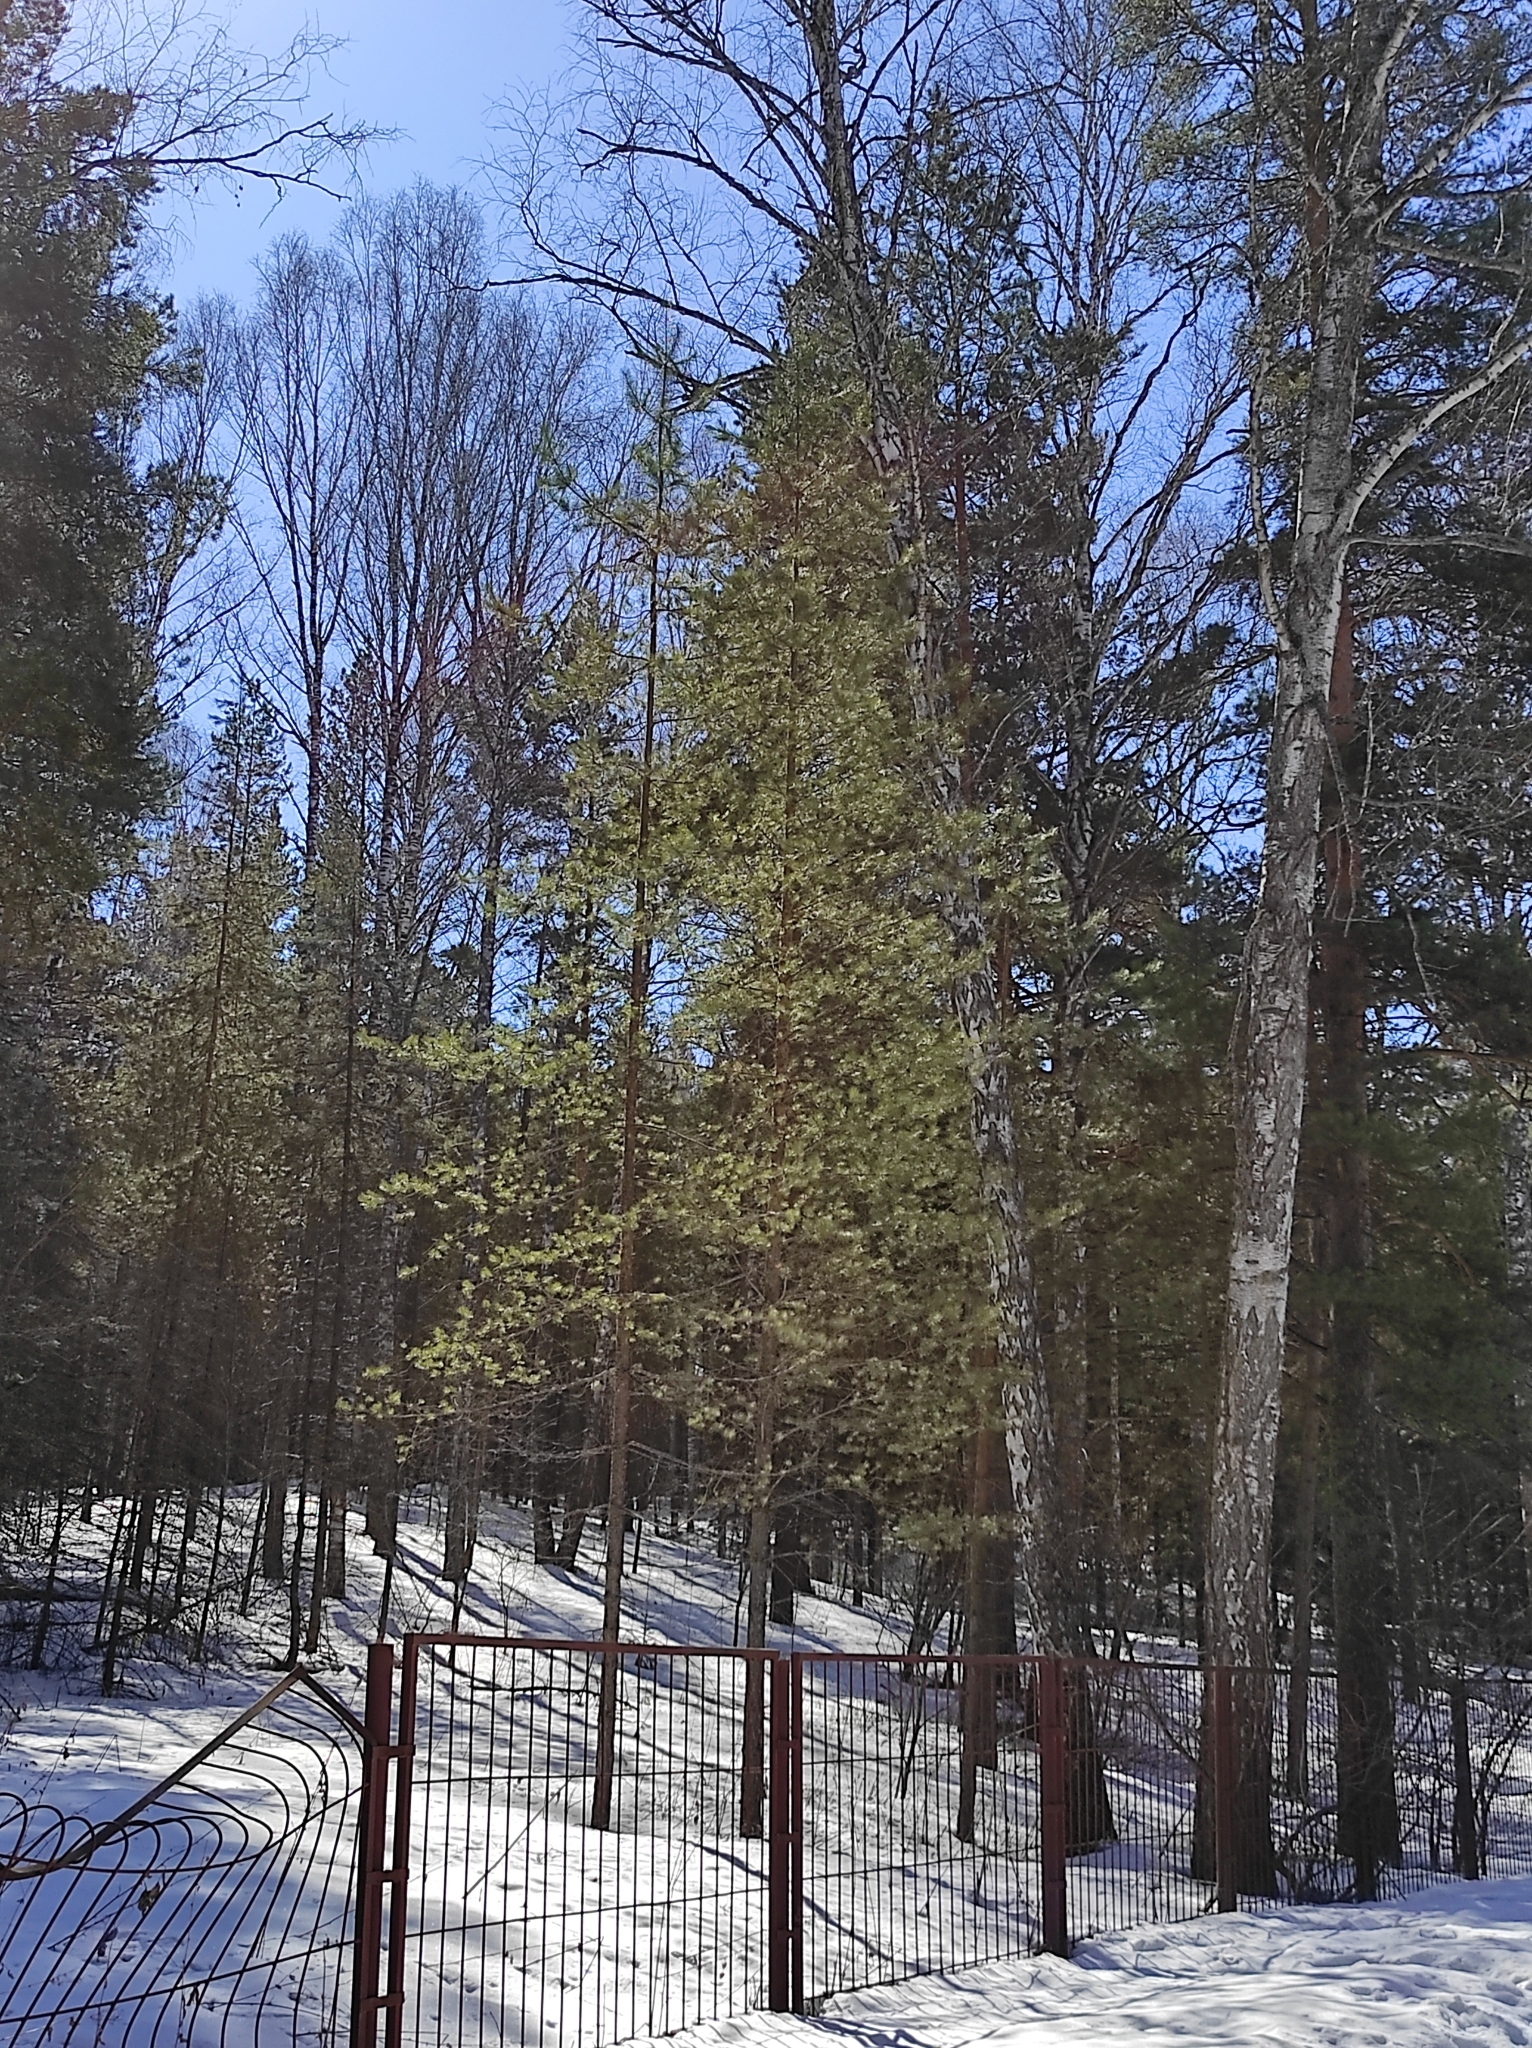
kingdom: Plantae
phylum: Tracheophyta
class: Pinopsida
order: Pinales
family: Pinaceae
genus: Pinus
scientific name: Pinus sylvestris
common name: Scots pine
